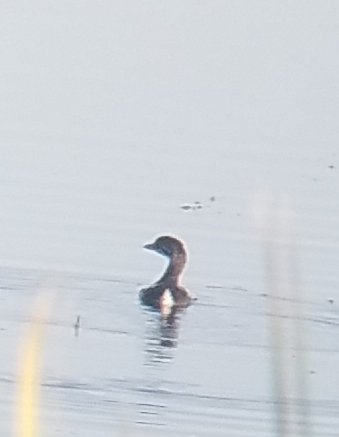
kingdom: Animalia
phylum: Chordata
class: Aves
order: Podicipediformes
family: Podicipedidae
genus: Podilymbus
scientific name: Podilymbus podiceps
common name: Pied-billed grebe
